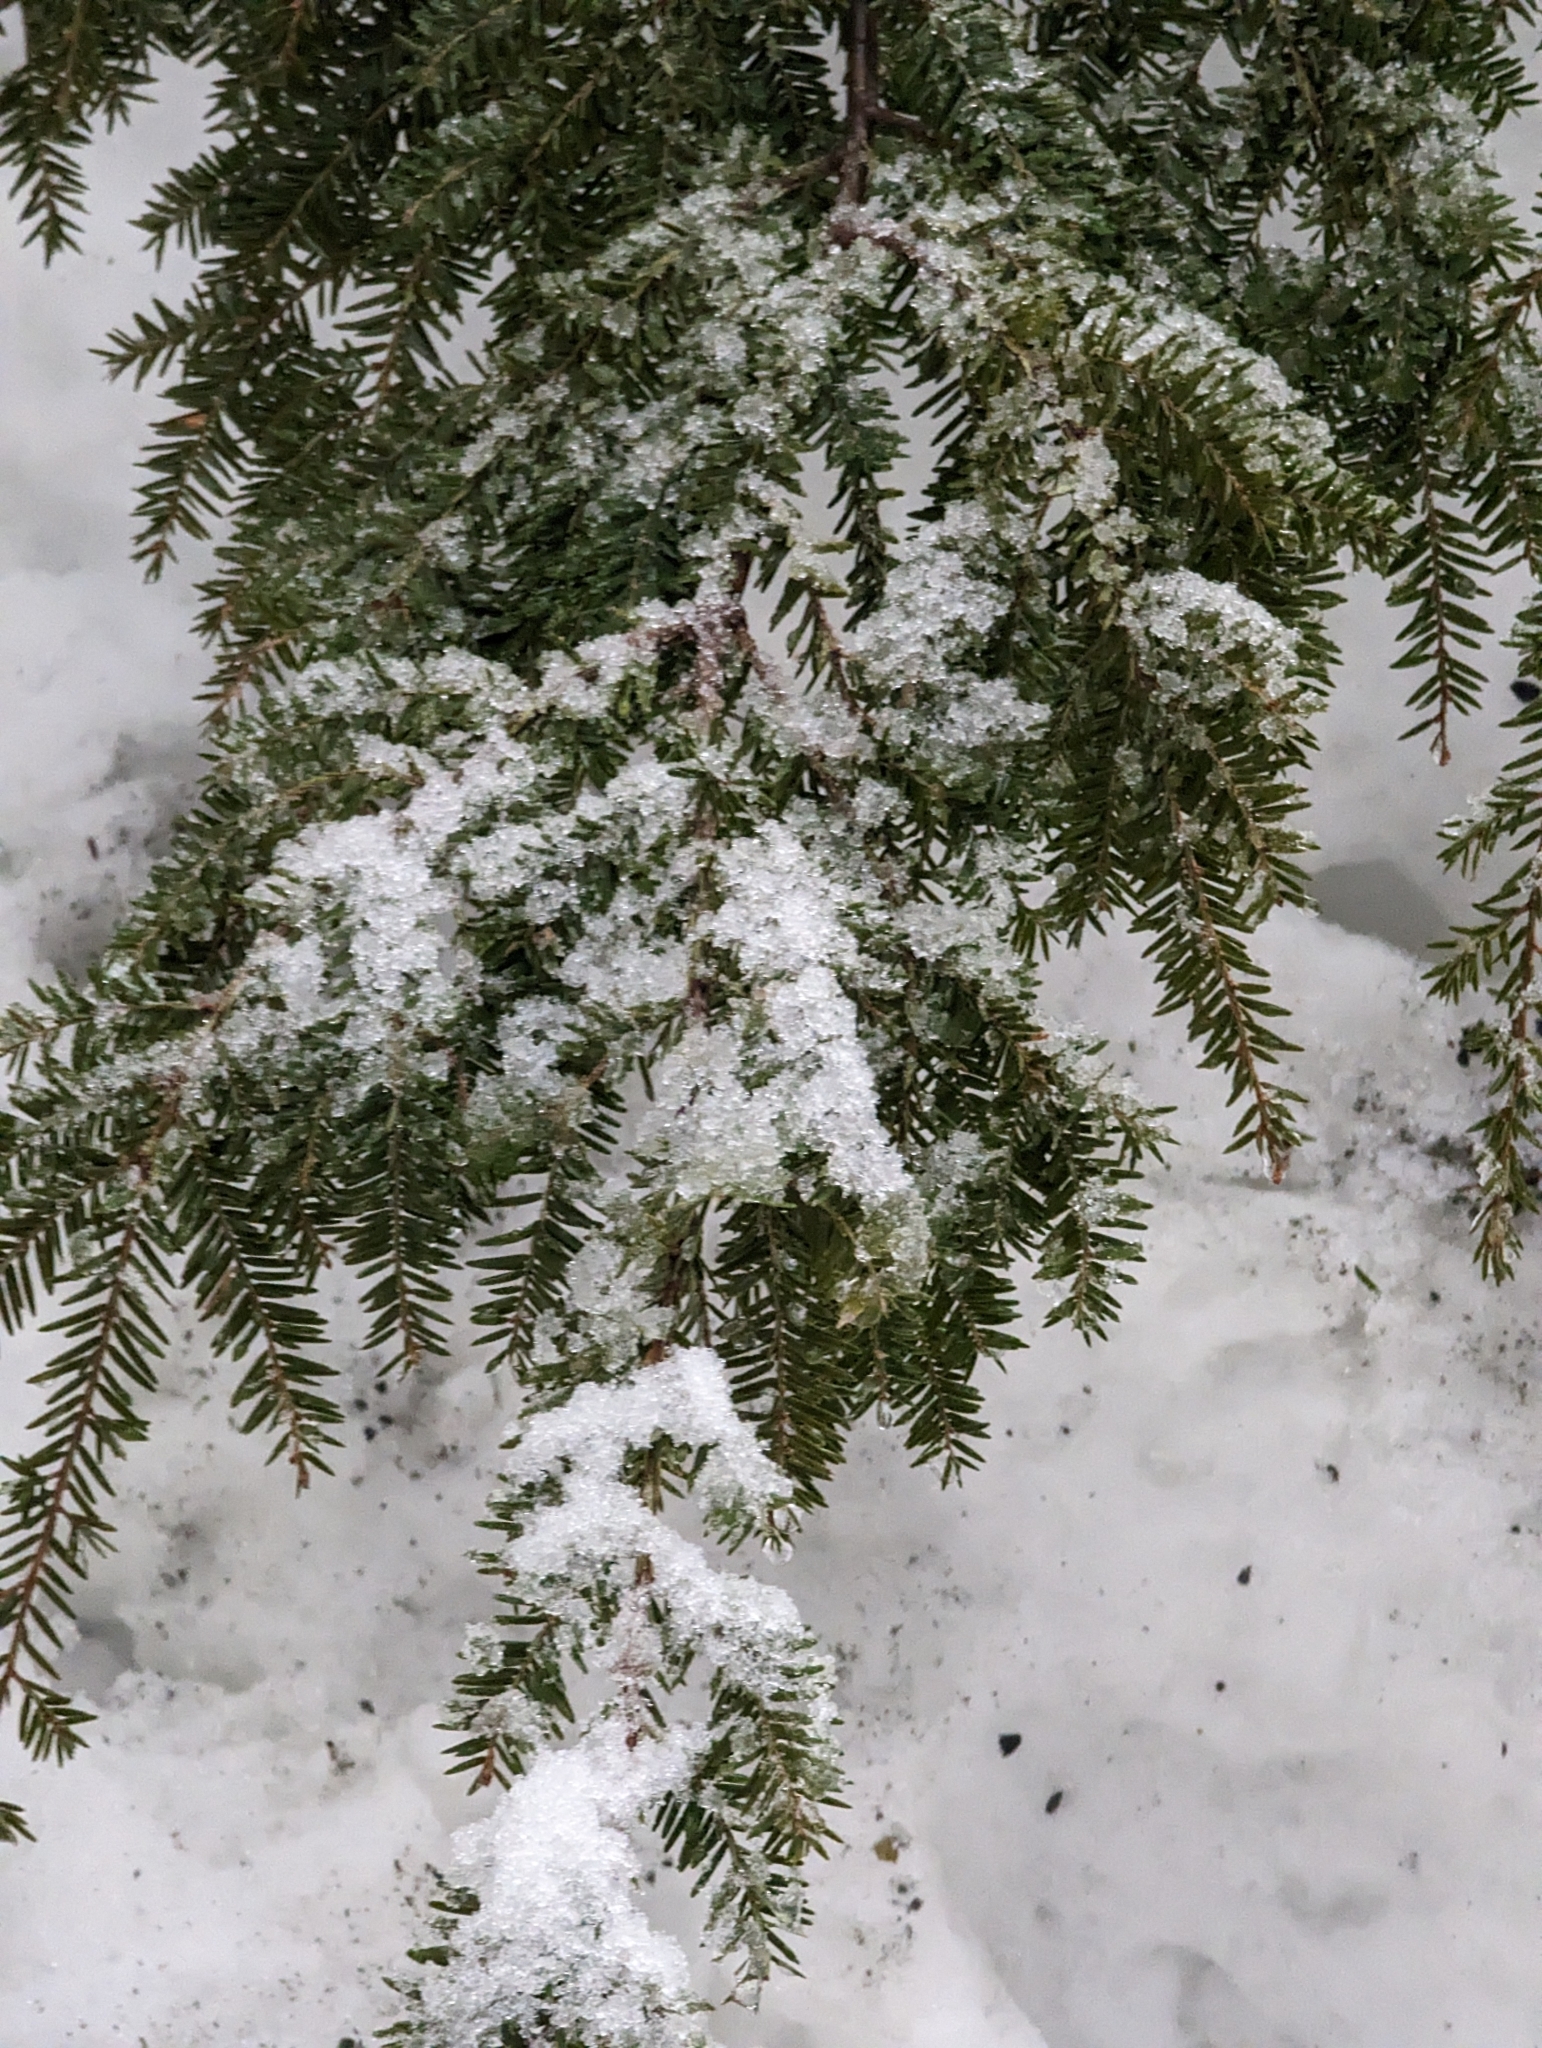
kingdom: Plantae
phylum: Tracheophyta
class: Pinopsida
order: Pinales
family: Pinaceae
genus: Tsuga
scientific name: Tsuga canadensis
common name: Eastern hemlock
